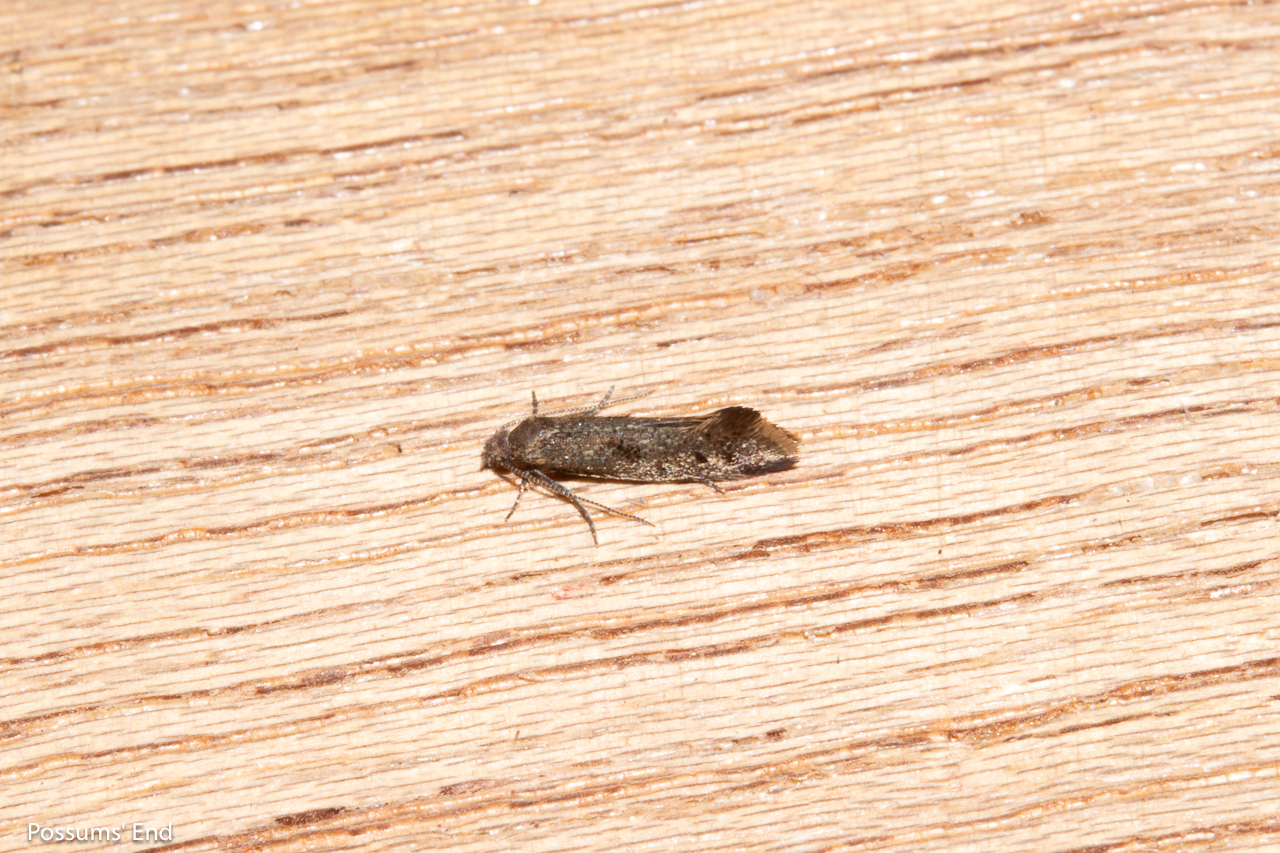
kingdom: Animalia
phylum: Arthropoda
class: Insecta
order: Lepidoptera
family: Tineidae
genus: Tinea
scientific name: Tinea mochlota
